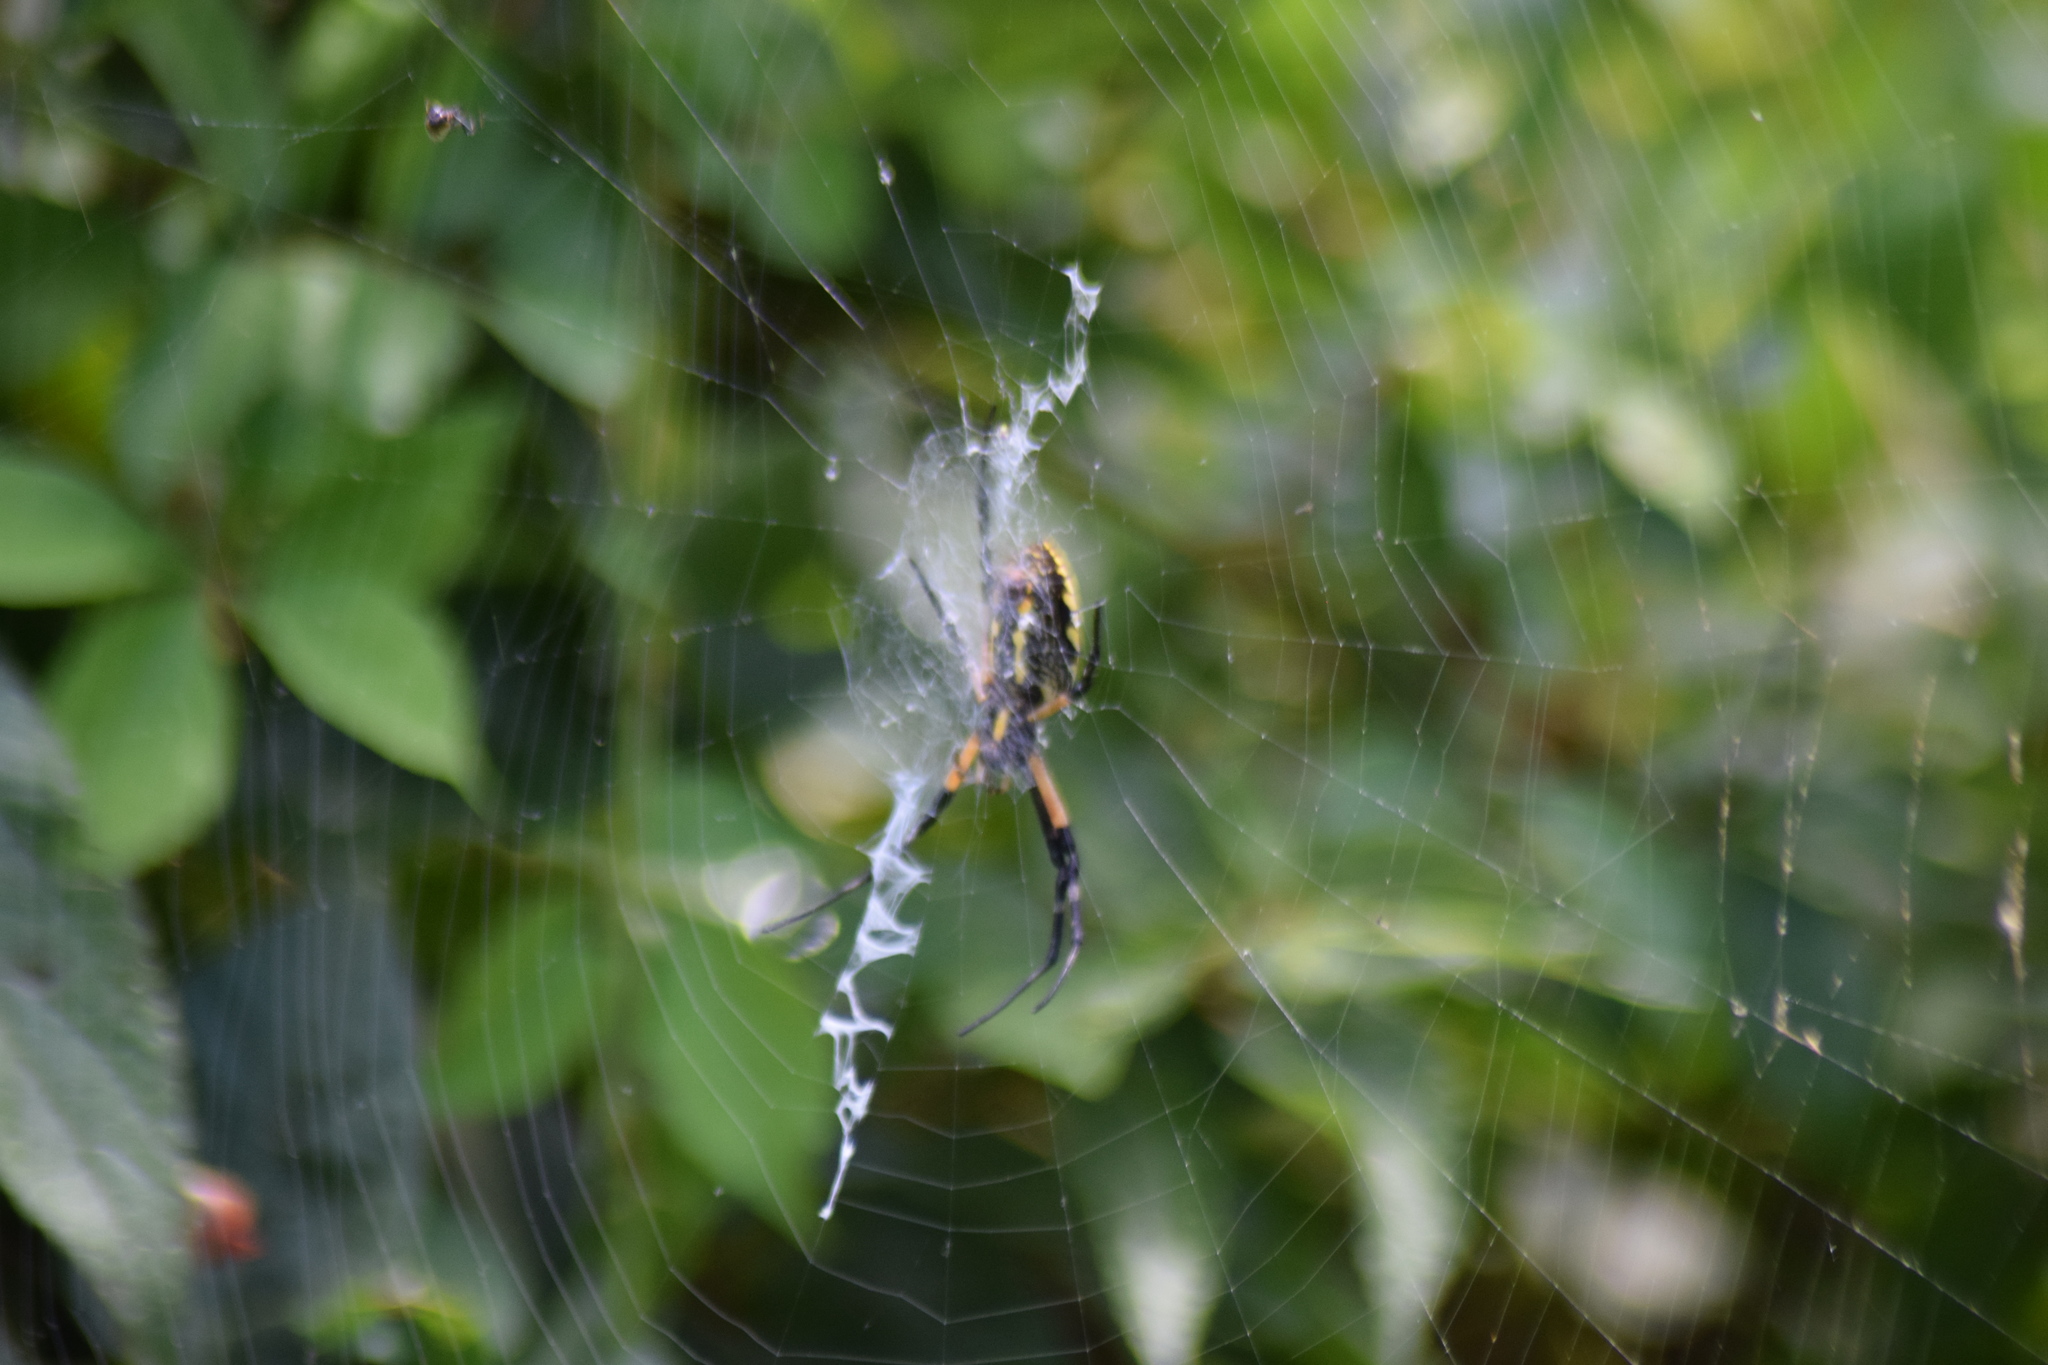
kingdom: Animalia
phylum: Arthropoda
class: Arachnida
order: Araneae
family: Araneidae
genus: Argiope
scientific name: Argiope aurantia
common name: Orb weavers
